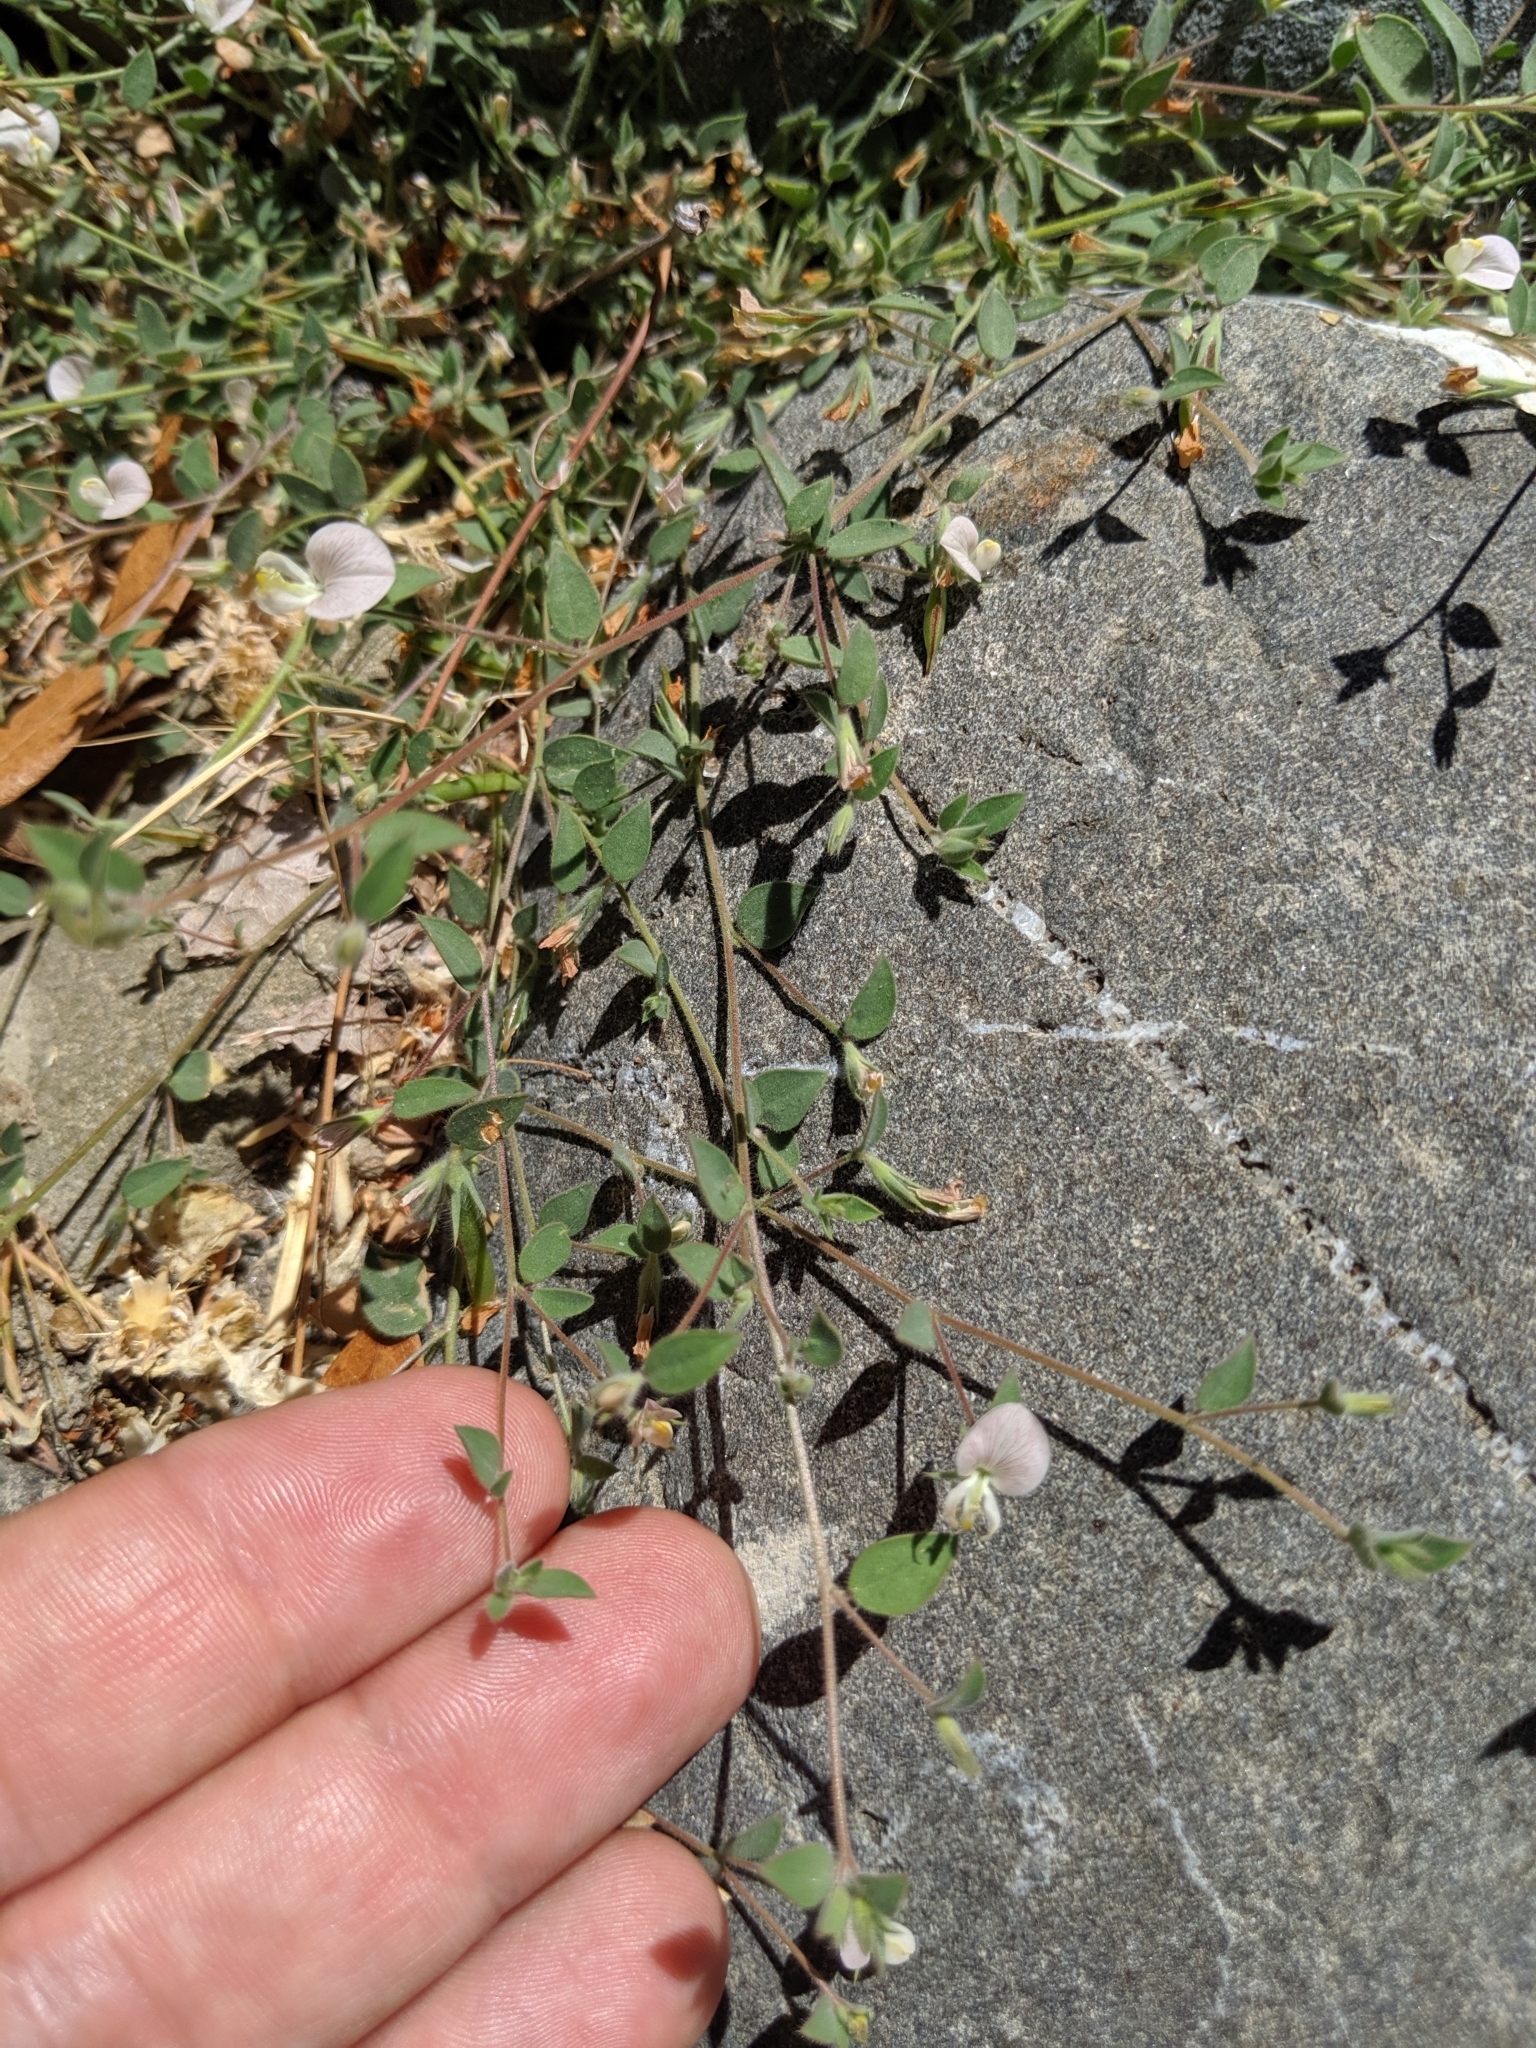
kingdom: Plantae
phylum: Tracheophyta
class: Magnoliopsida
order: Fabales
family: Fabaceae
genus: Acmispon
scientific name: Acmispon americanus
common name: American bird's-foot trefoil
